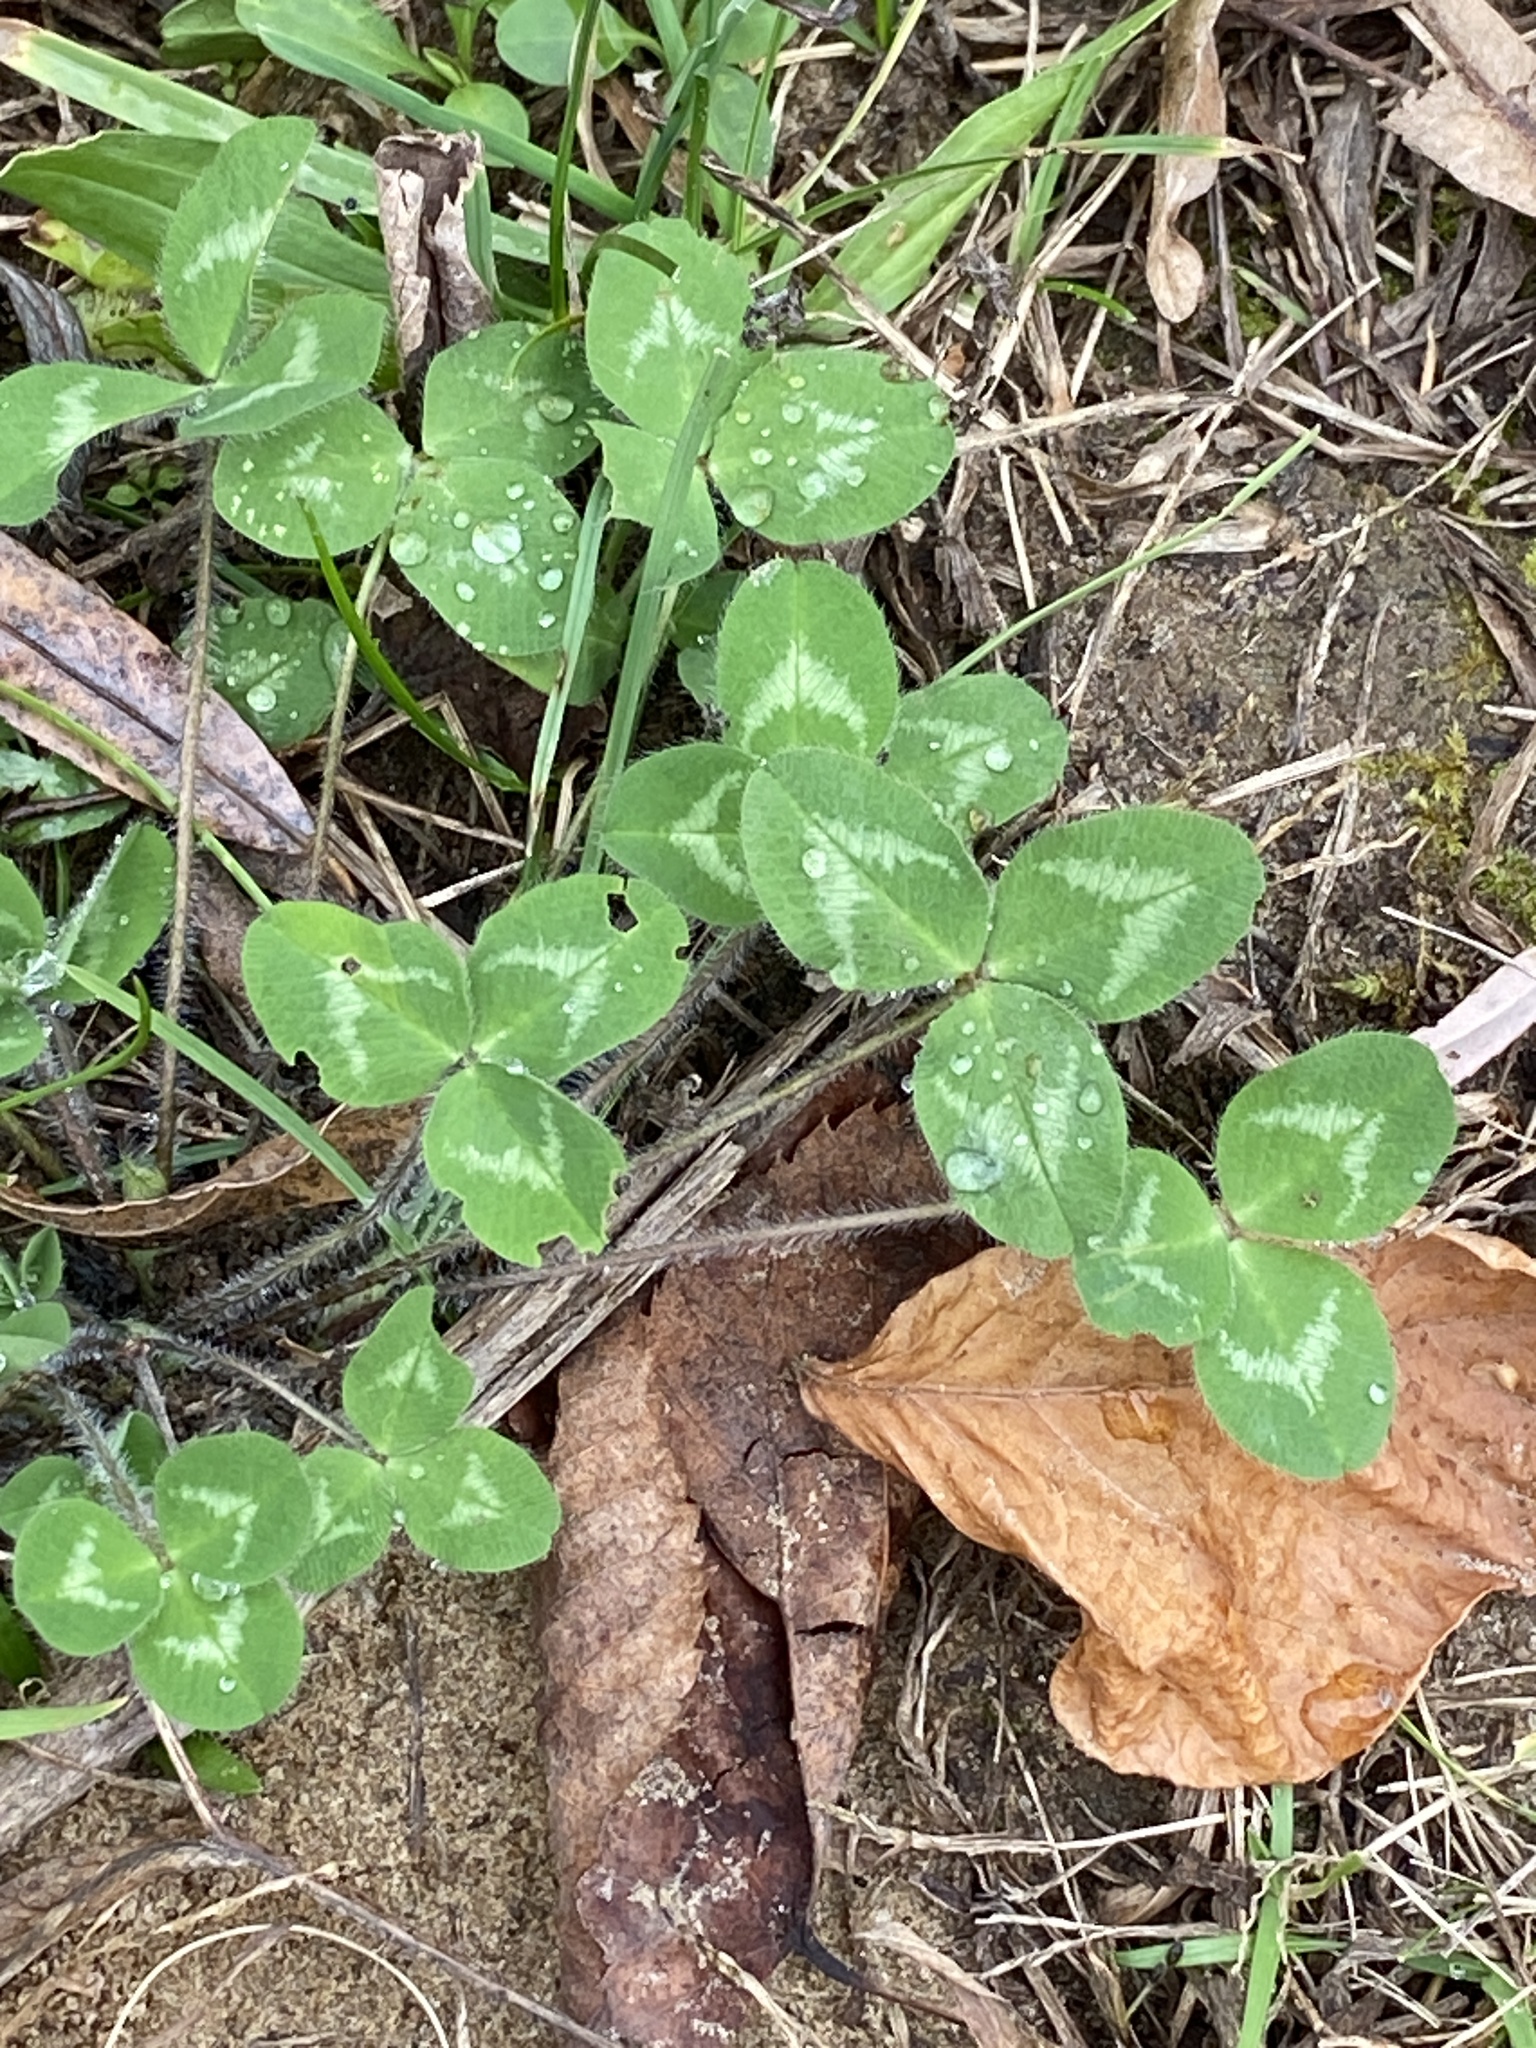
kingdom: Plantae
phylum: Tracheophyta
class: Magnoliopsida
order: Fabales
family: Fabaceae
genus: Trifolium
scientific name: Trifolium pratense
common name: Red clover
